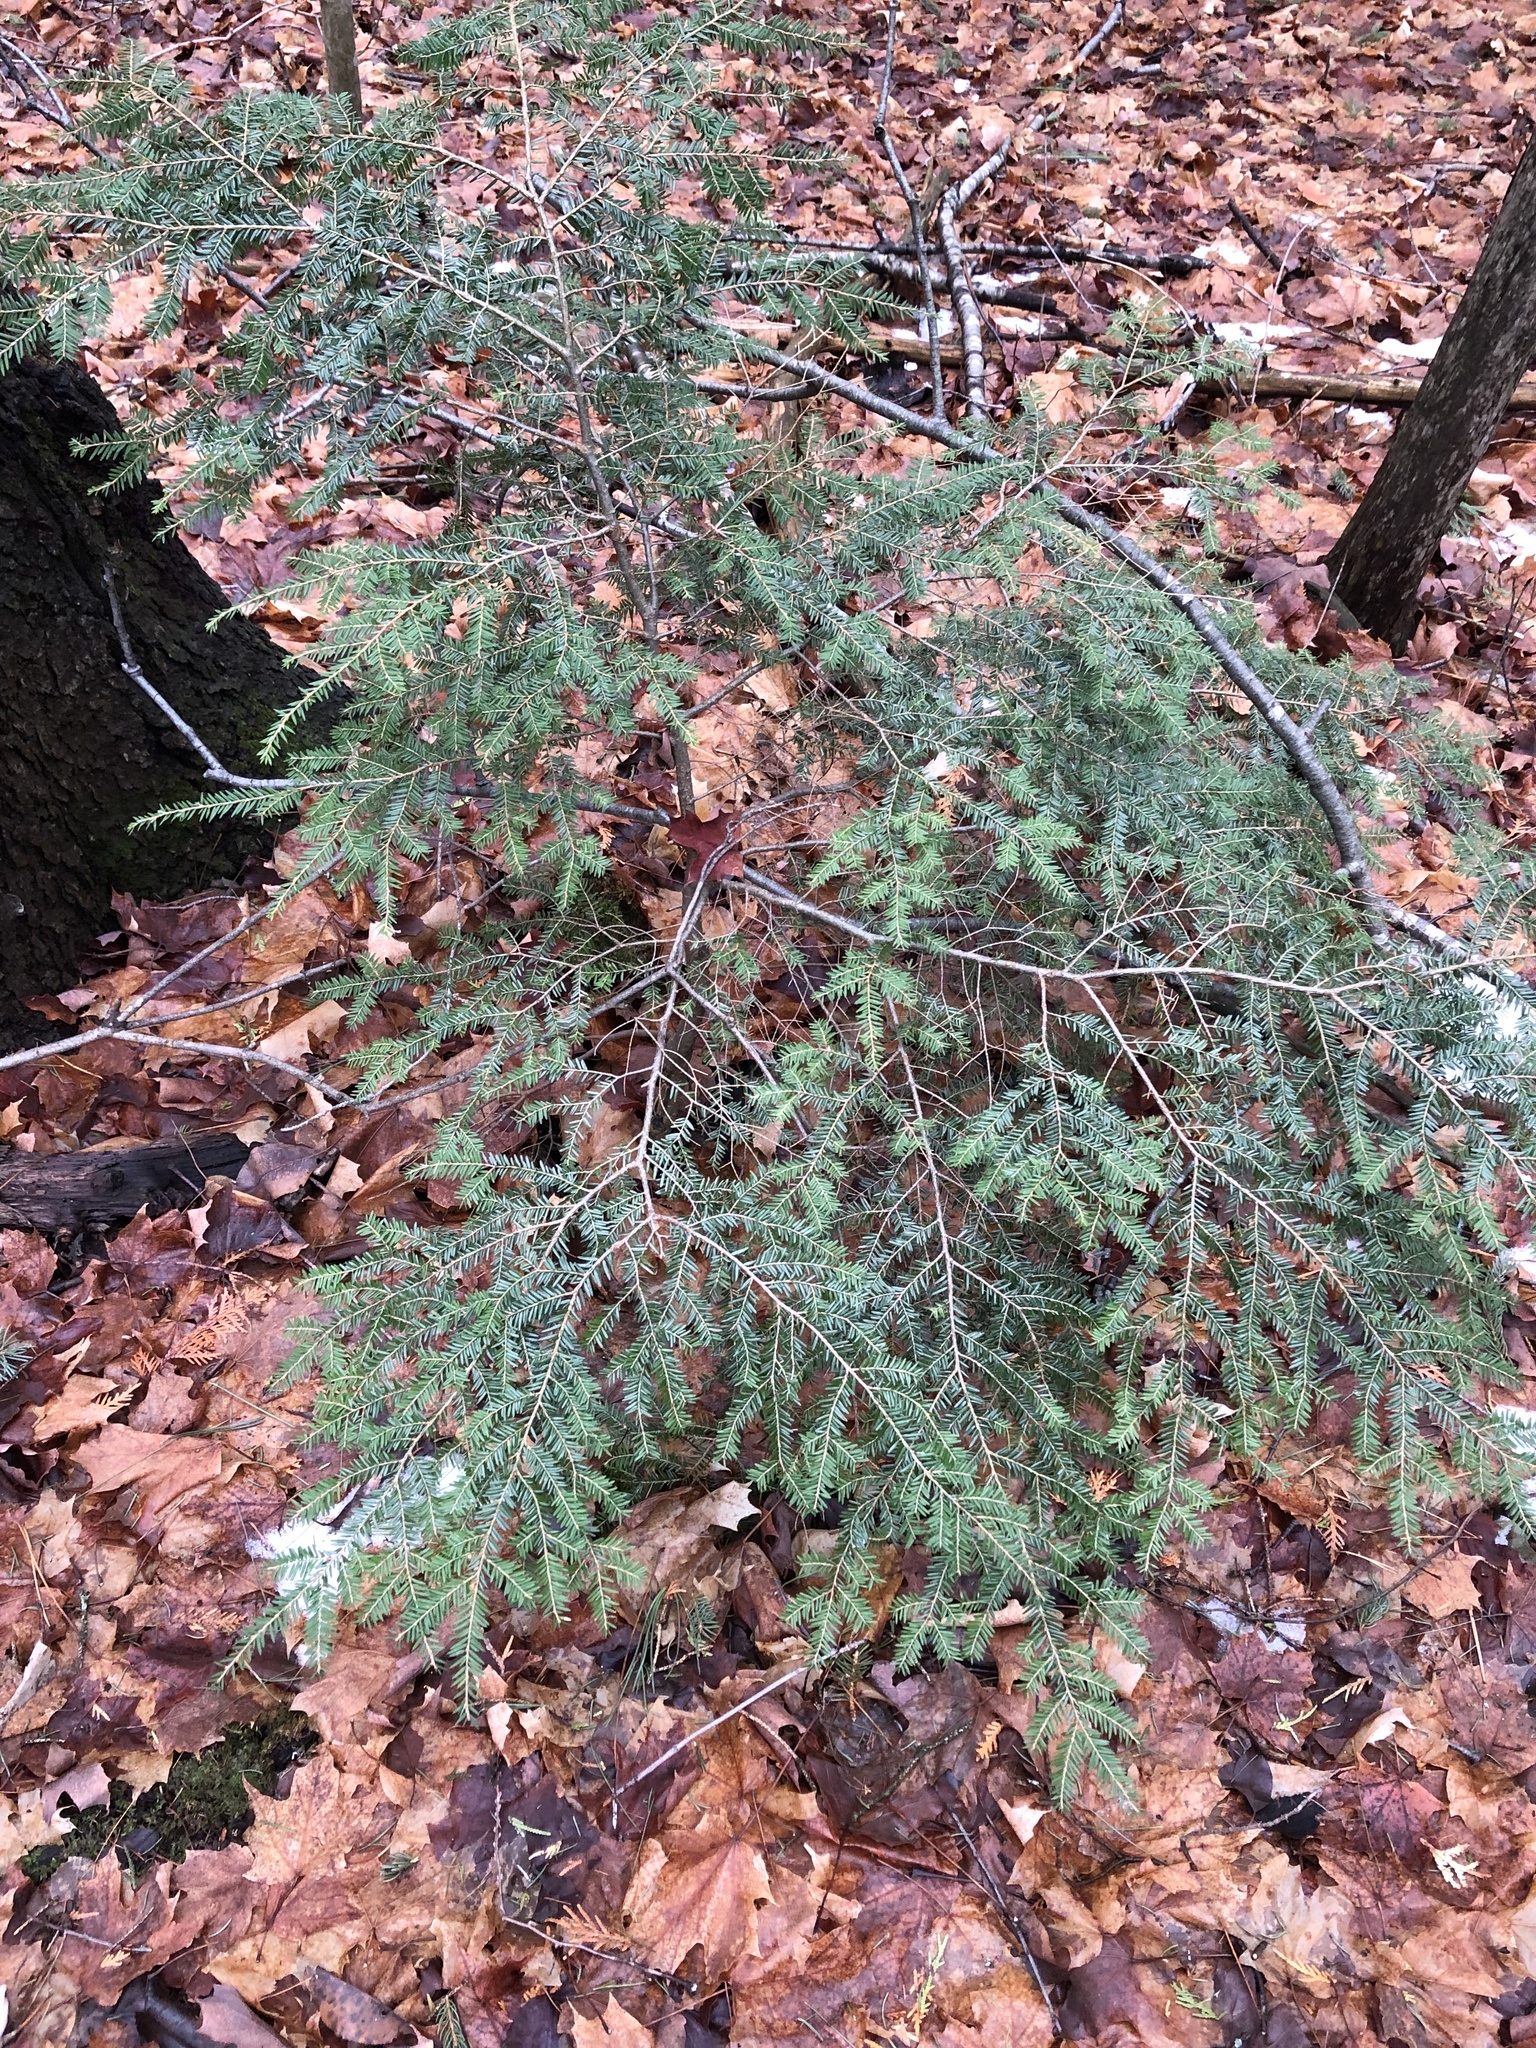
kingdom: Plantae
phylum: Tracheophyta
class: Pinopsida
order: Pinales
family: Pinaceae
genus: Tsuga
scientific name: Tsuga canadensis
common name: Eastern hemlock
